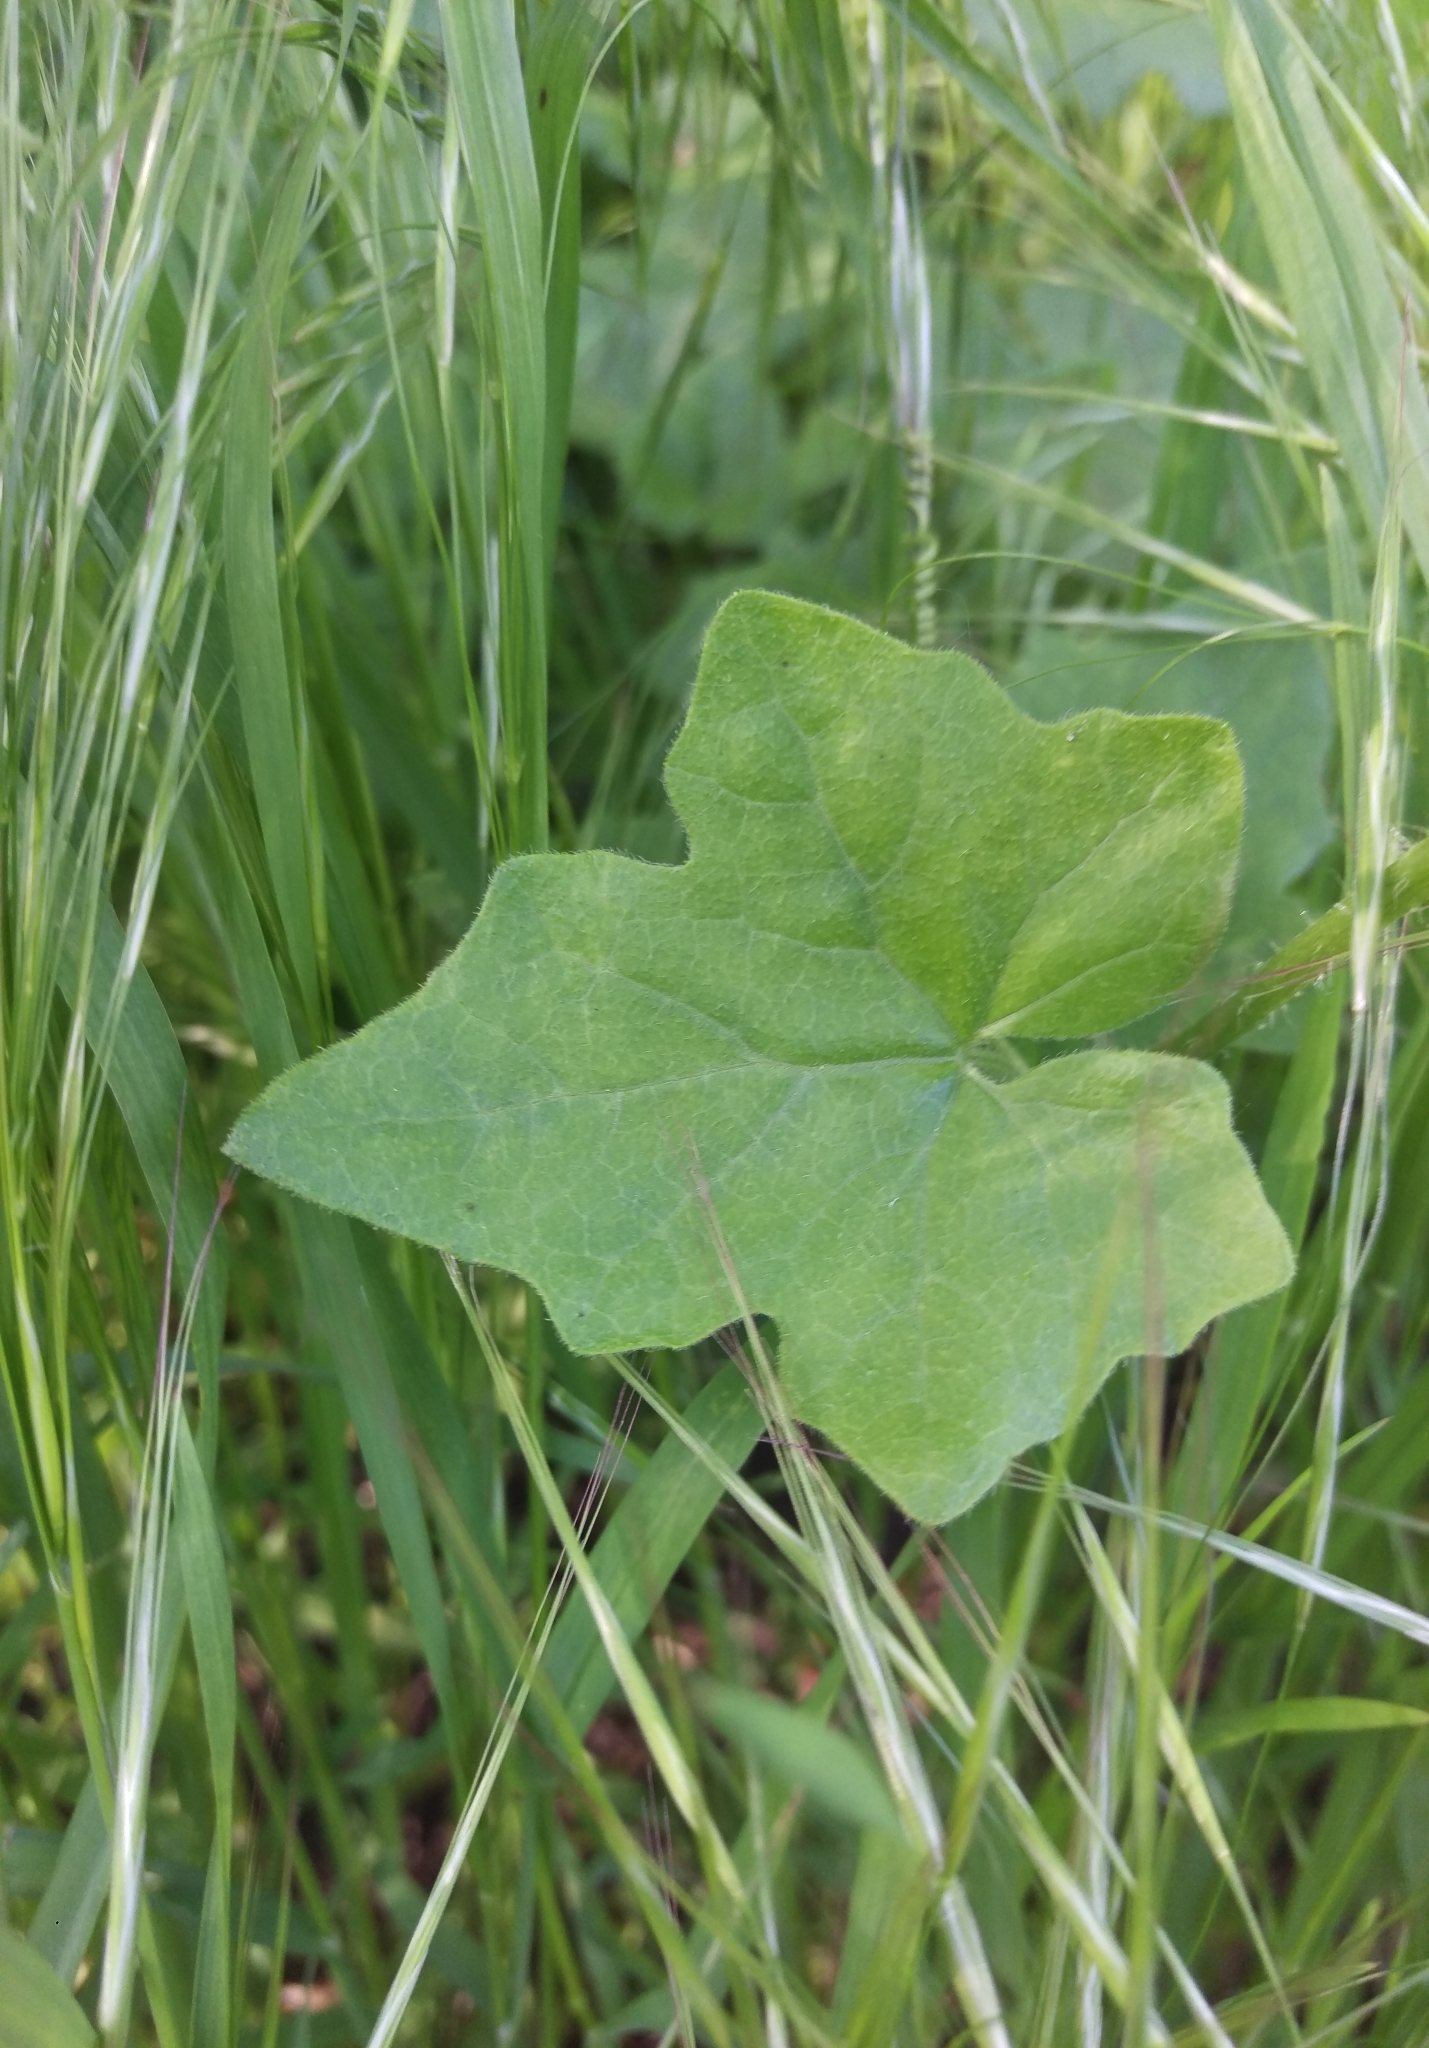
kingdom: Plantae
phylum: Tracheophyta
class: Magnoliopsida
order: Cucurbitales
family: Cucurbitaceae
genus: Bryonia
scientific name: Bryonia cretica
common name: Cretan bryony
